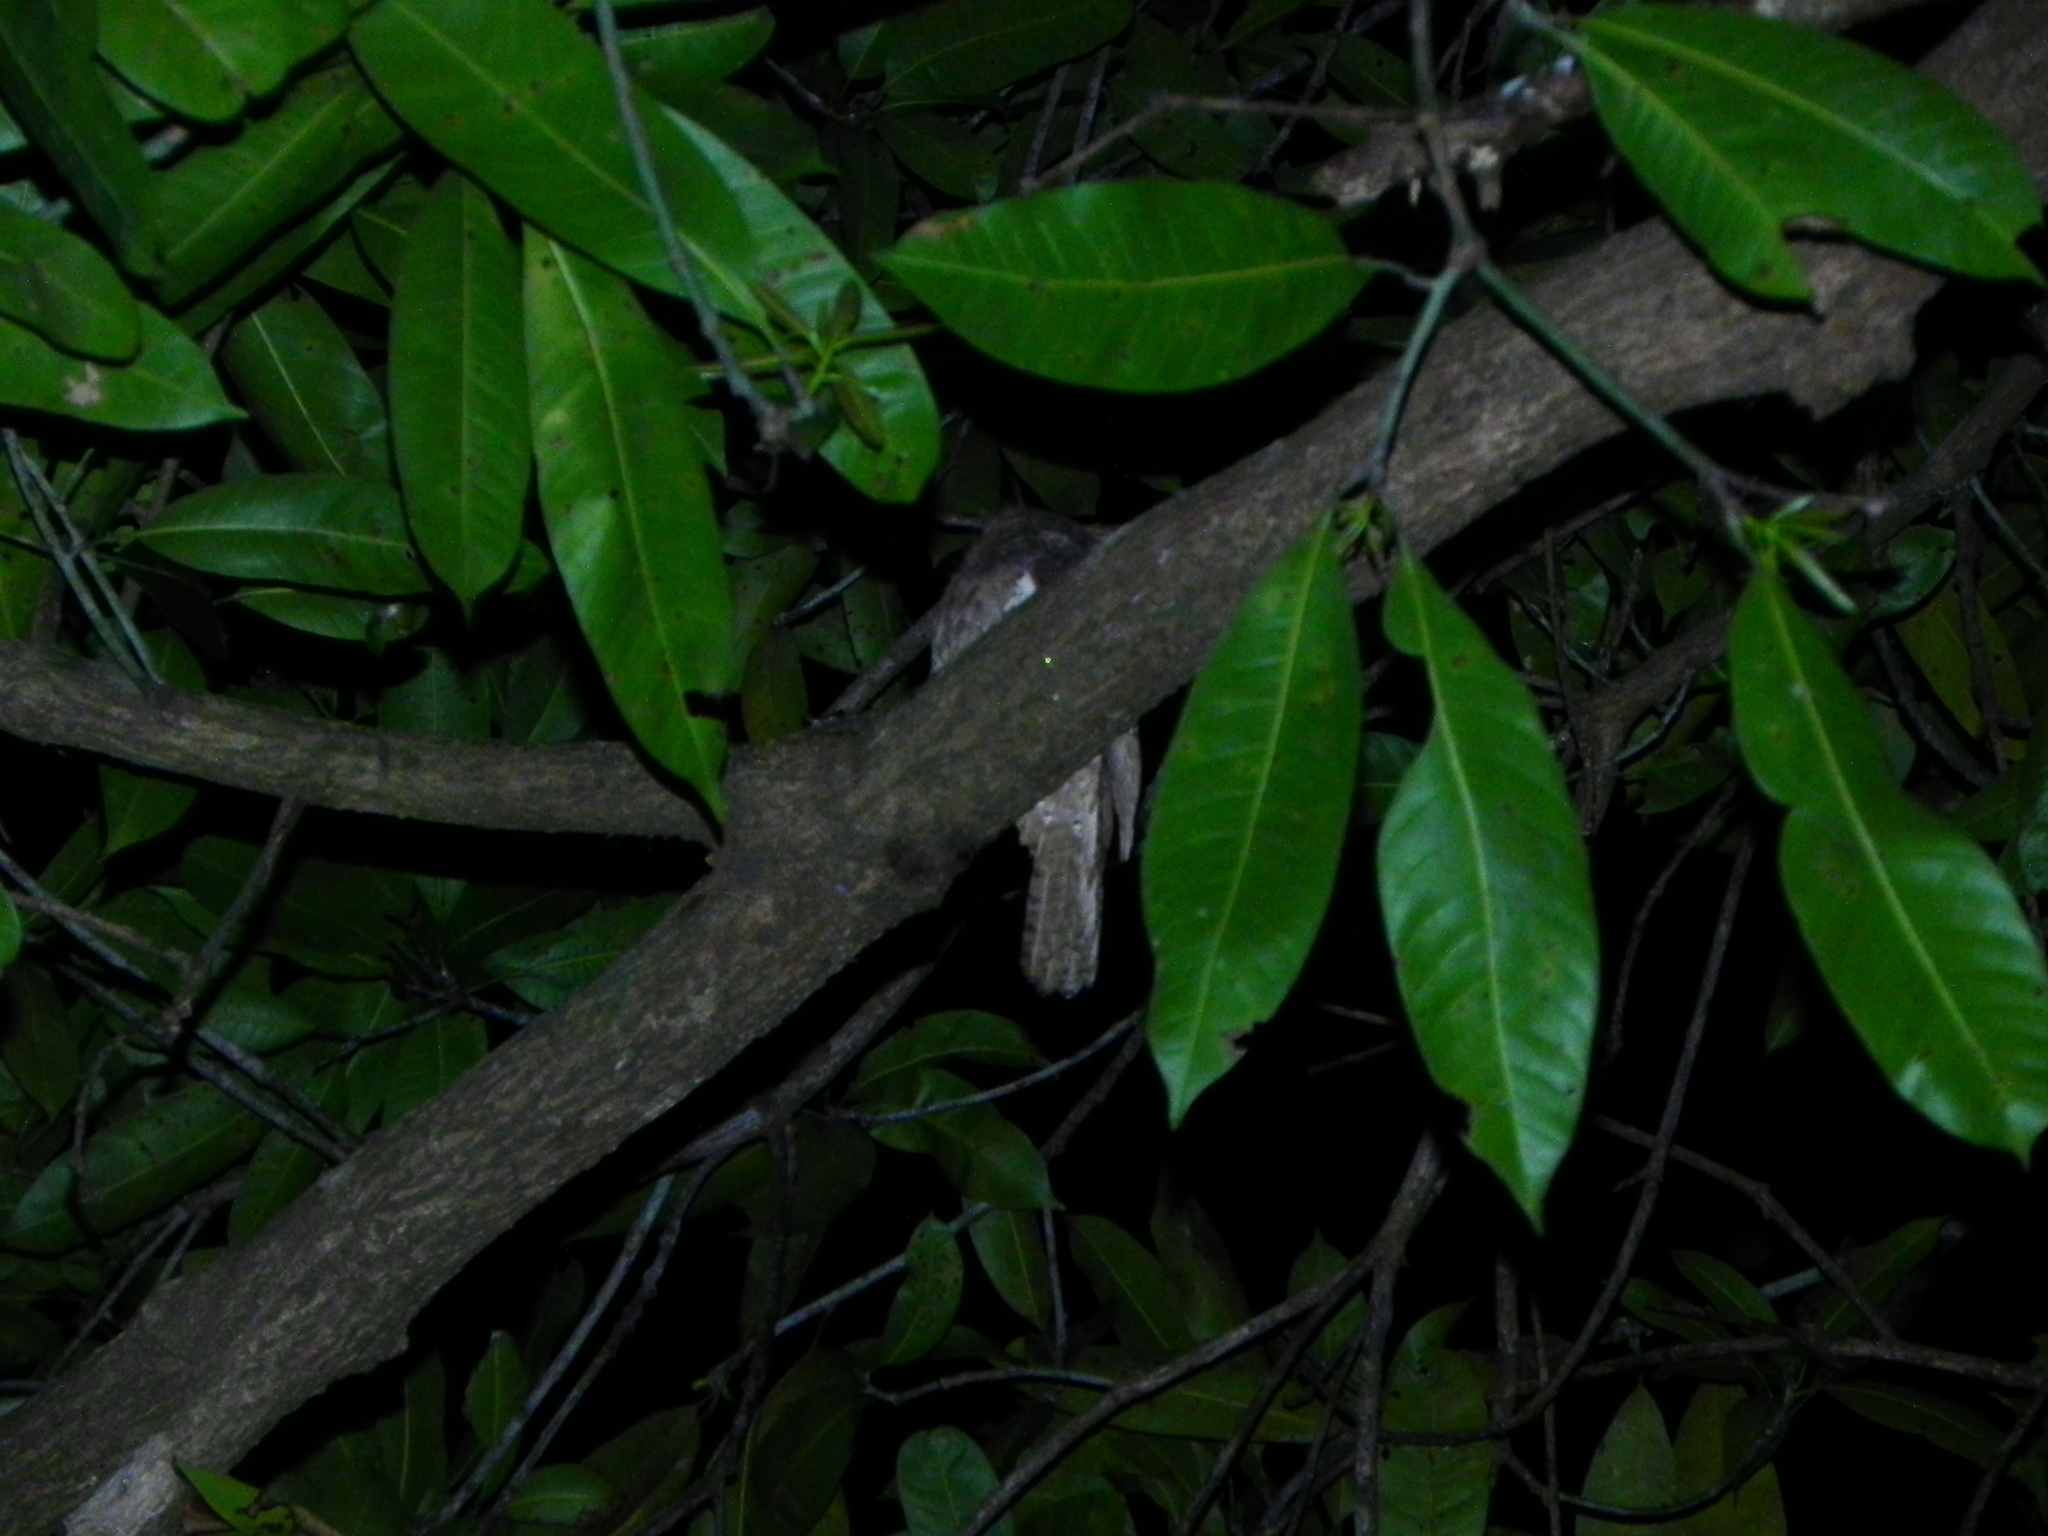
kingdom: Animalia
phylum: Chordata
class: Aves
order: Caprimulgiformes
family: Podargidae
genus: Batrachostomus
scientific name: Batrachostomus moniliger
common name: Sri lanka frogmouth
